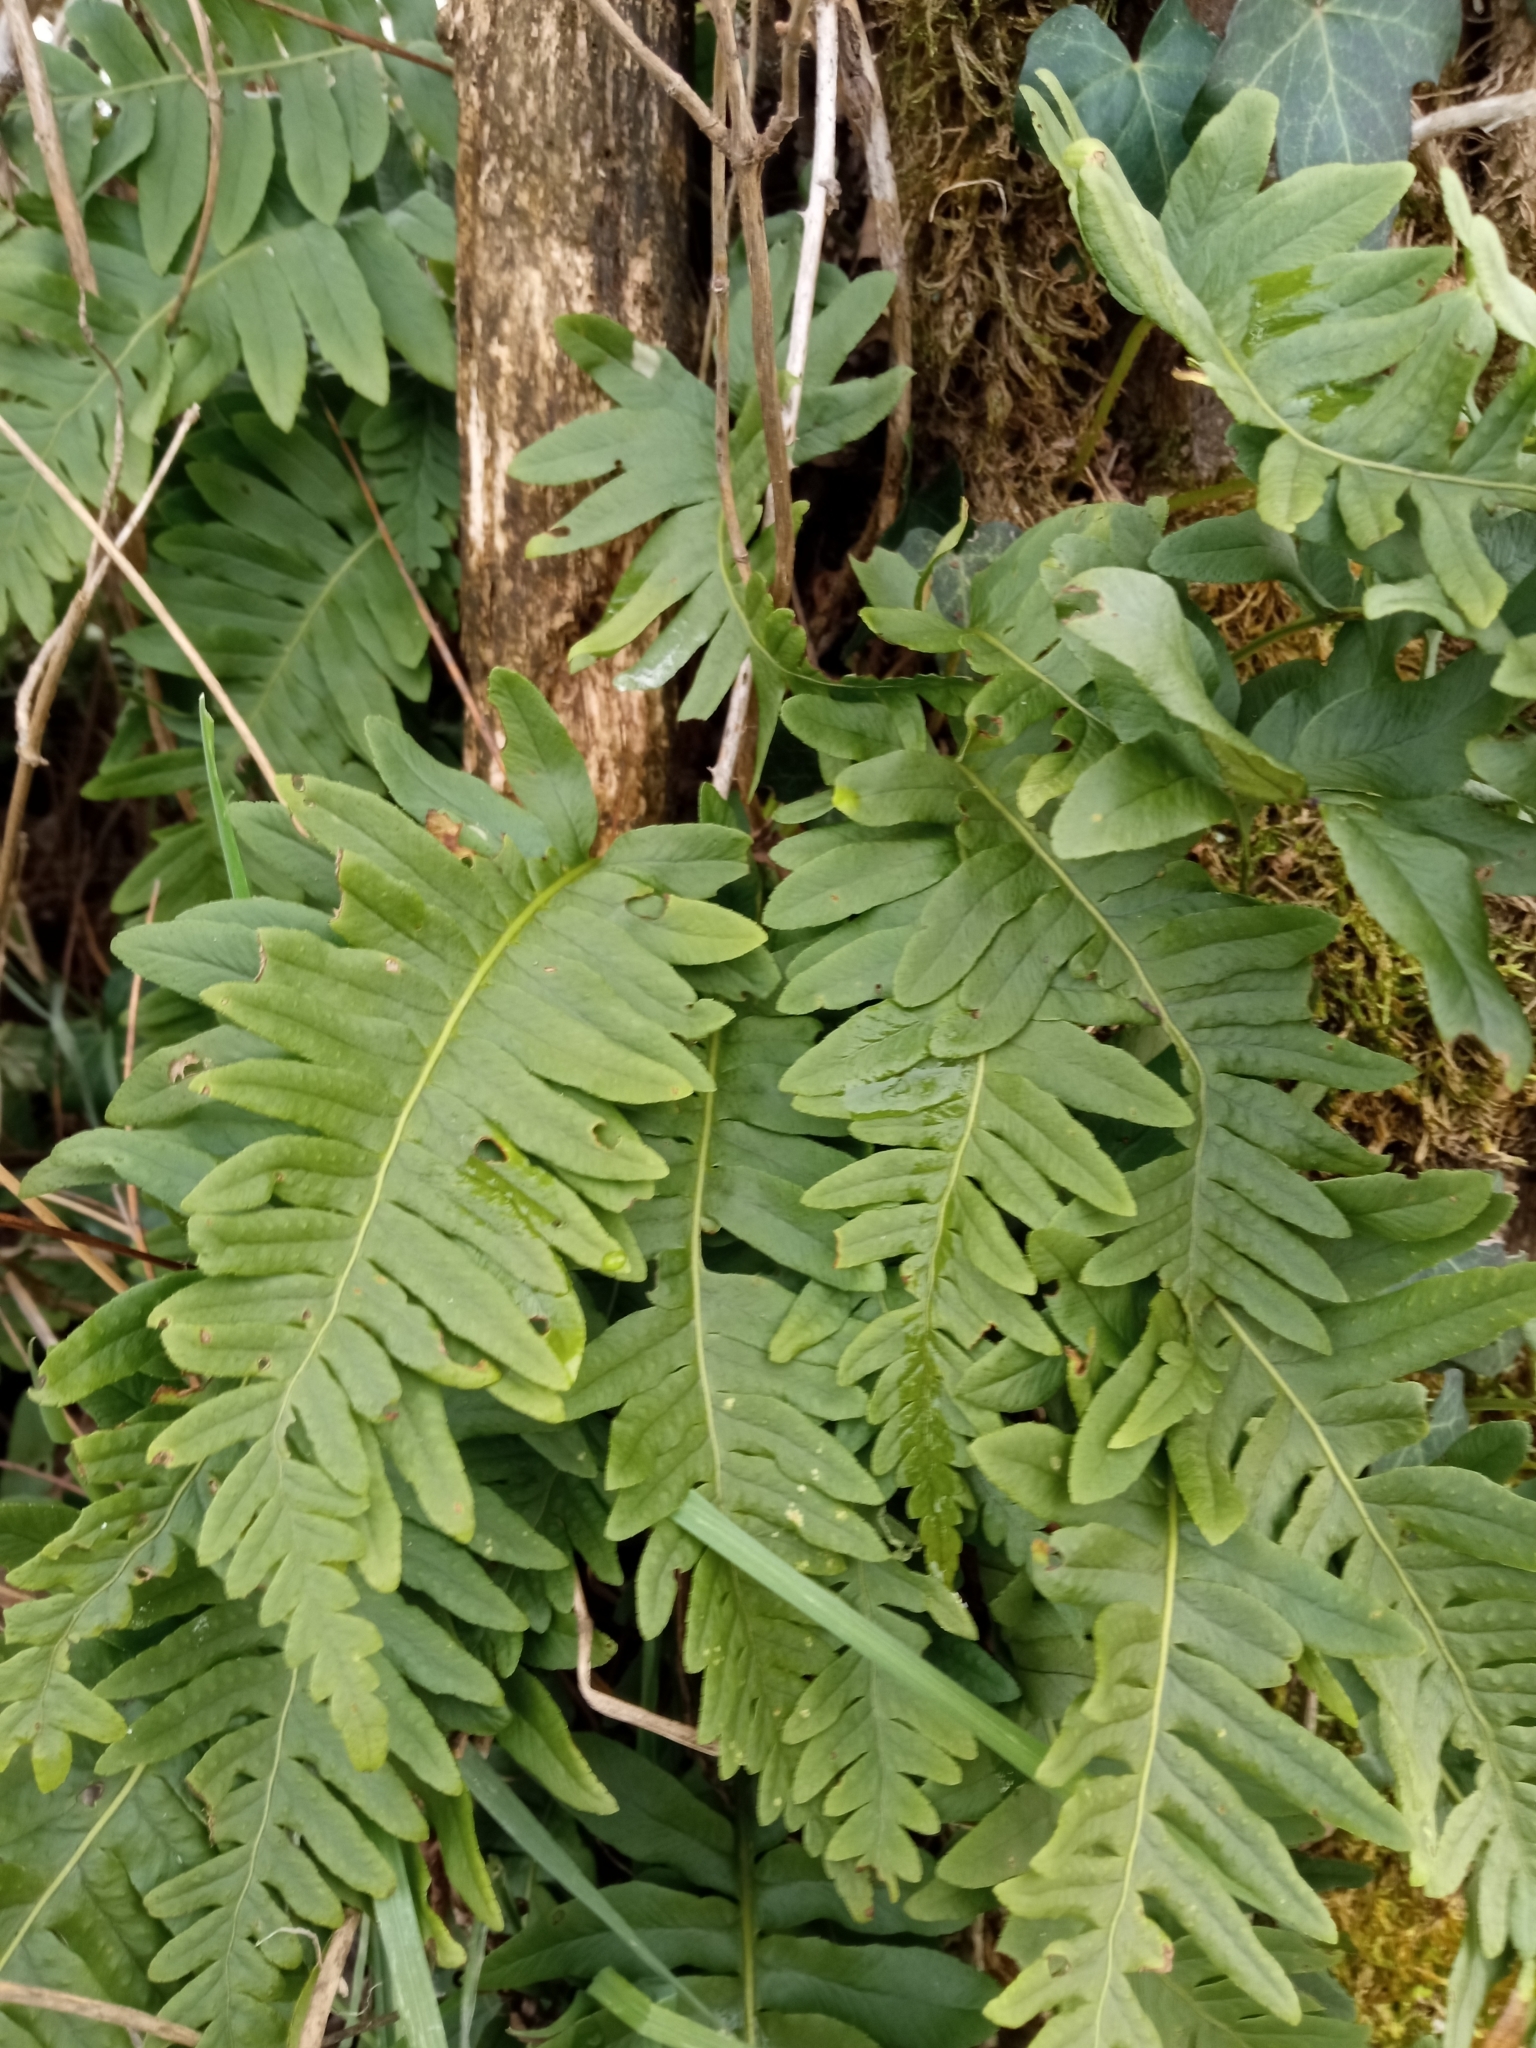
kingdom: Plantae
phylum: Tracheophyta
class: Polypodiopsida
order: Polypodiales
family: Polypodiaceae
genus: Polypodium
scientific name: Polypodium interjectum
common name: Intermediate polypody
